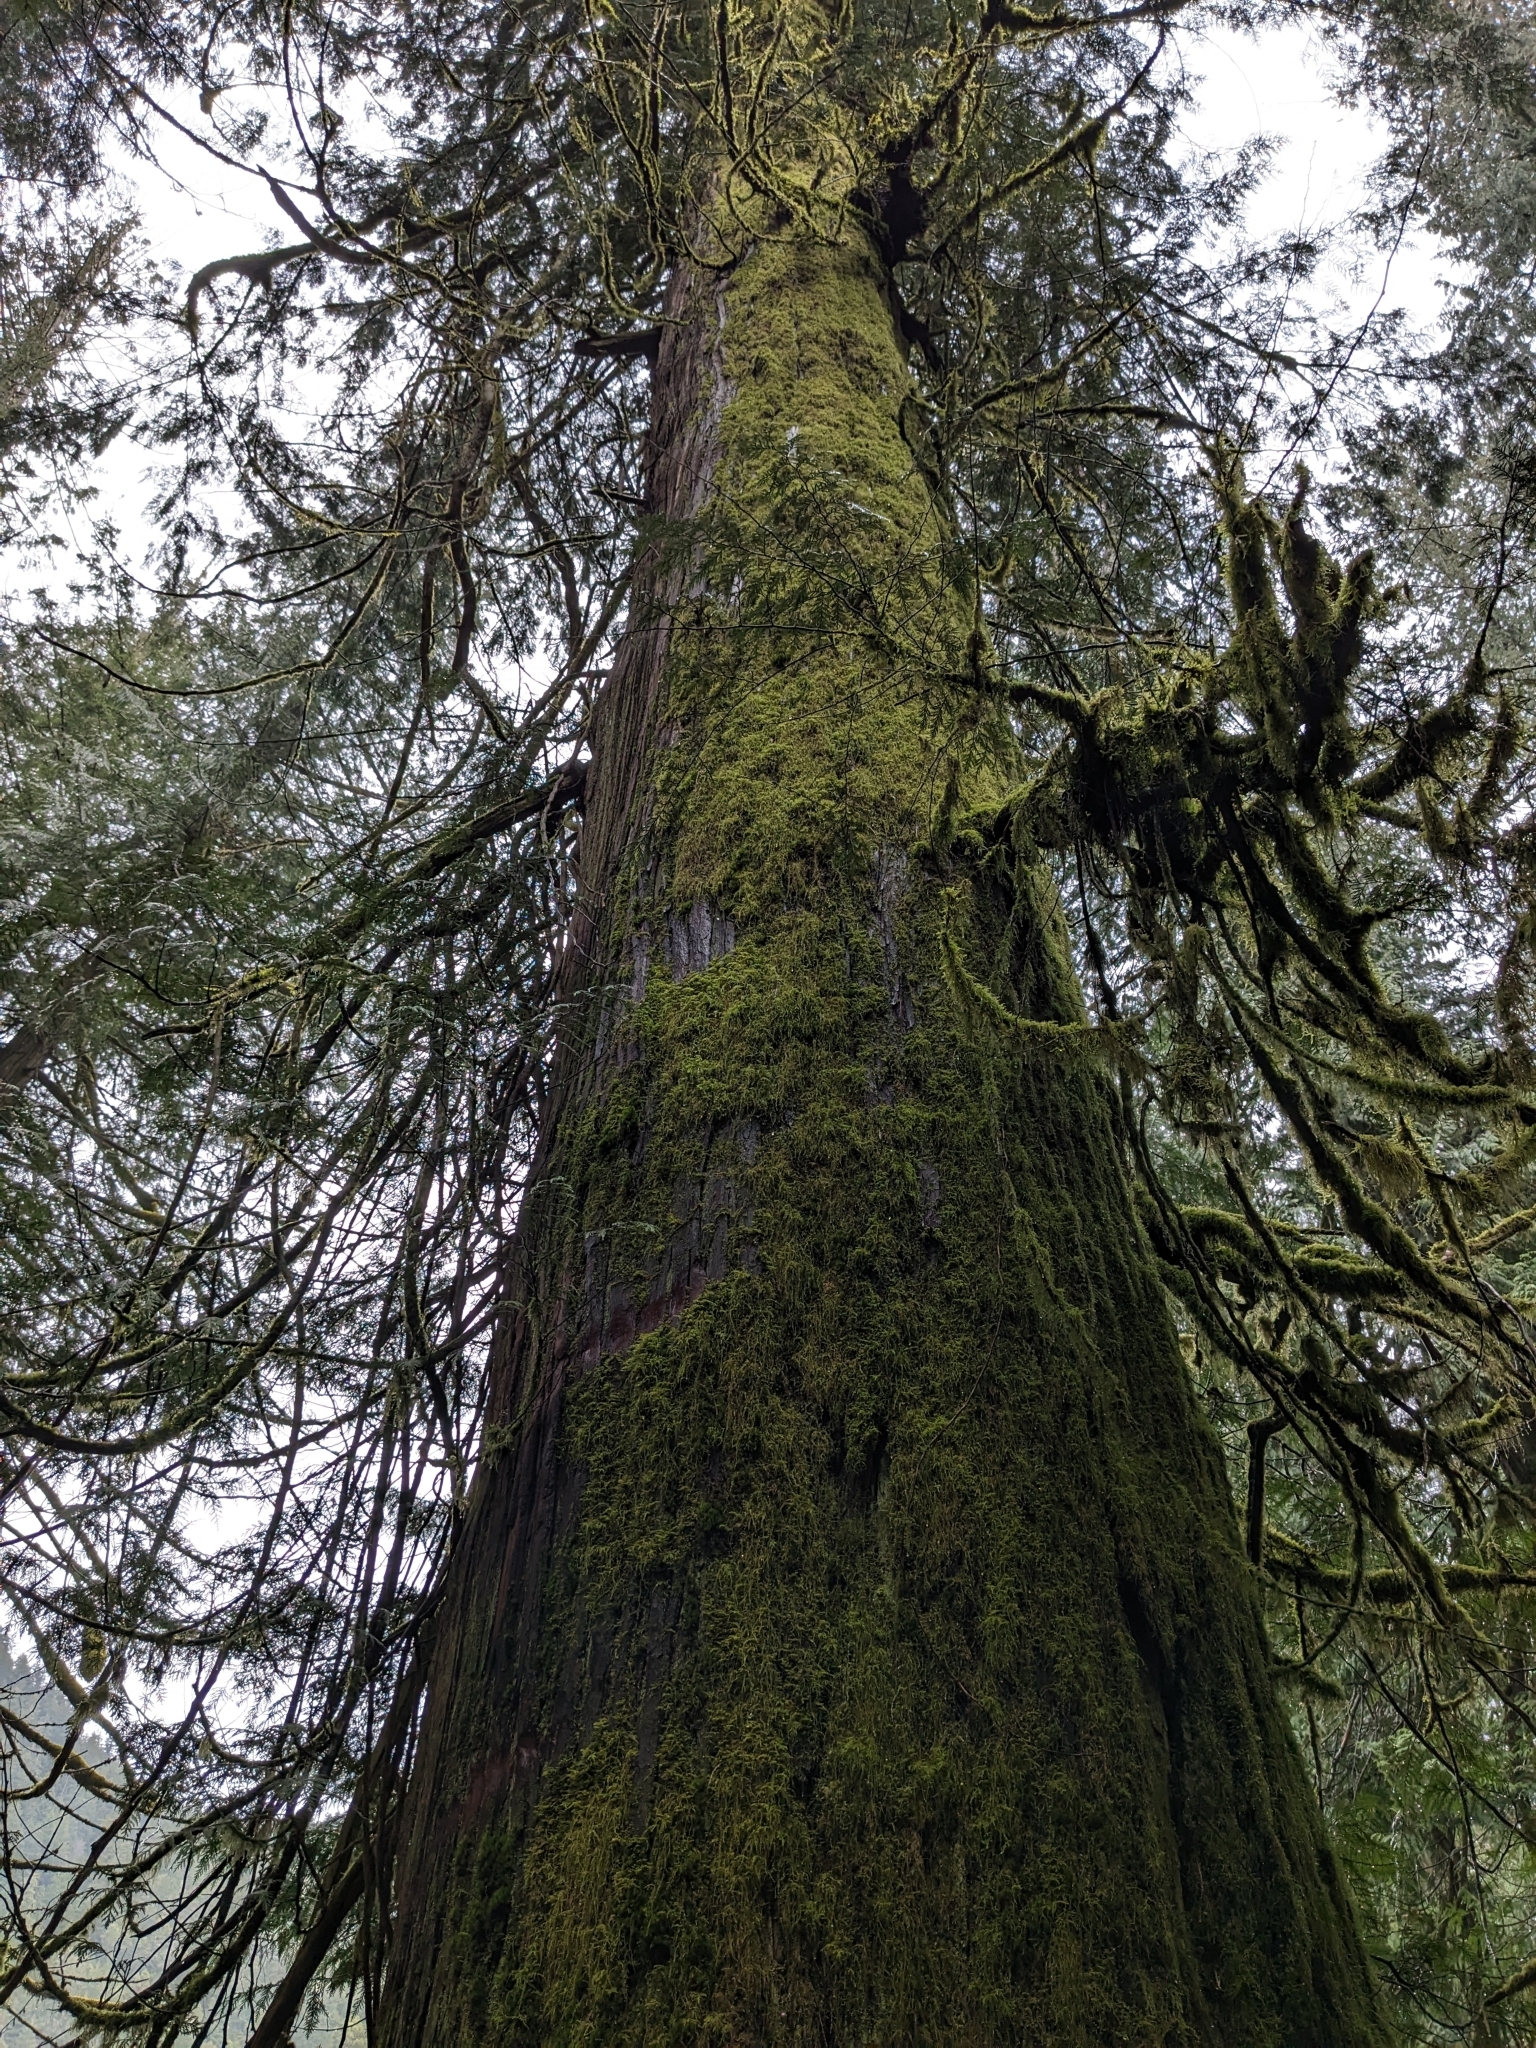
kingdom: Plantae
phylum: Tracheophyta
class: Pinopsida
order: Pinales
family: Cupressaceae
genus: Thuja
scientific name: Thuja plicata
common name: Western red-cedar
